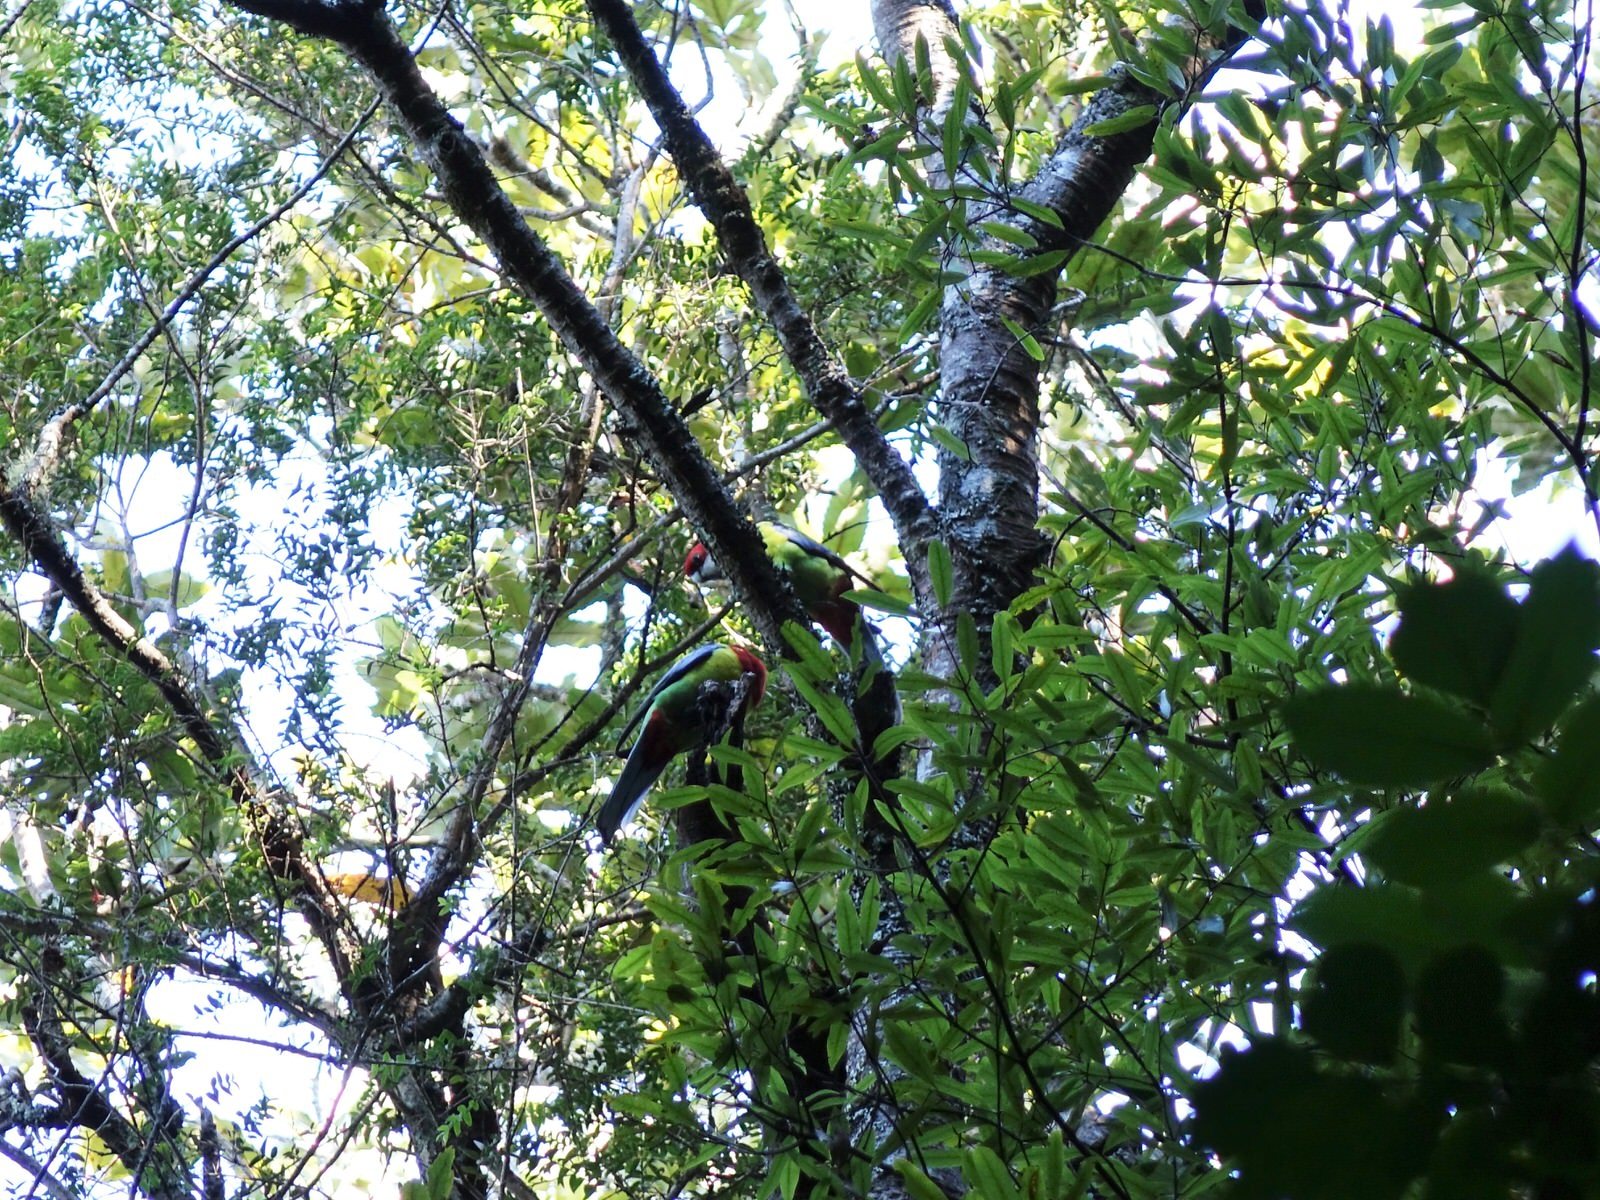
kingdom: Animalia
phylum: Chordata
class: Aves
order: Psittaciformes
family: Psittacidae
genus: Platycercus
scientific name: Platycercus eximius
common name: Eastern rosella
